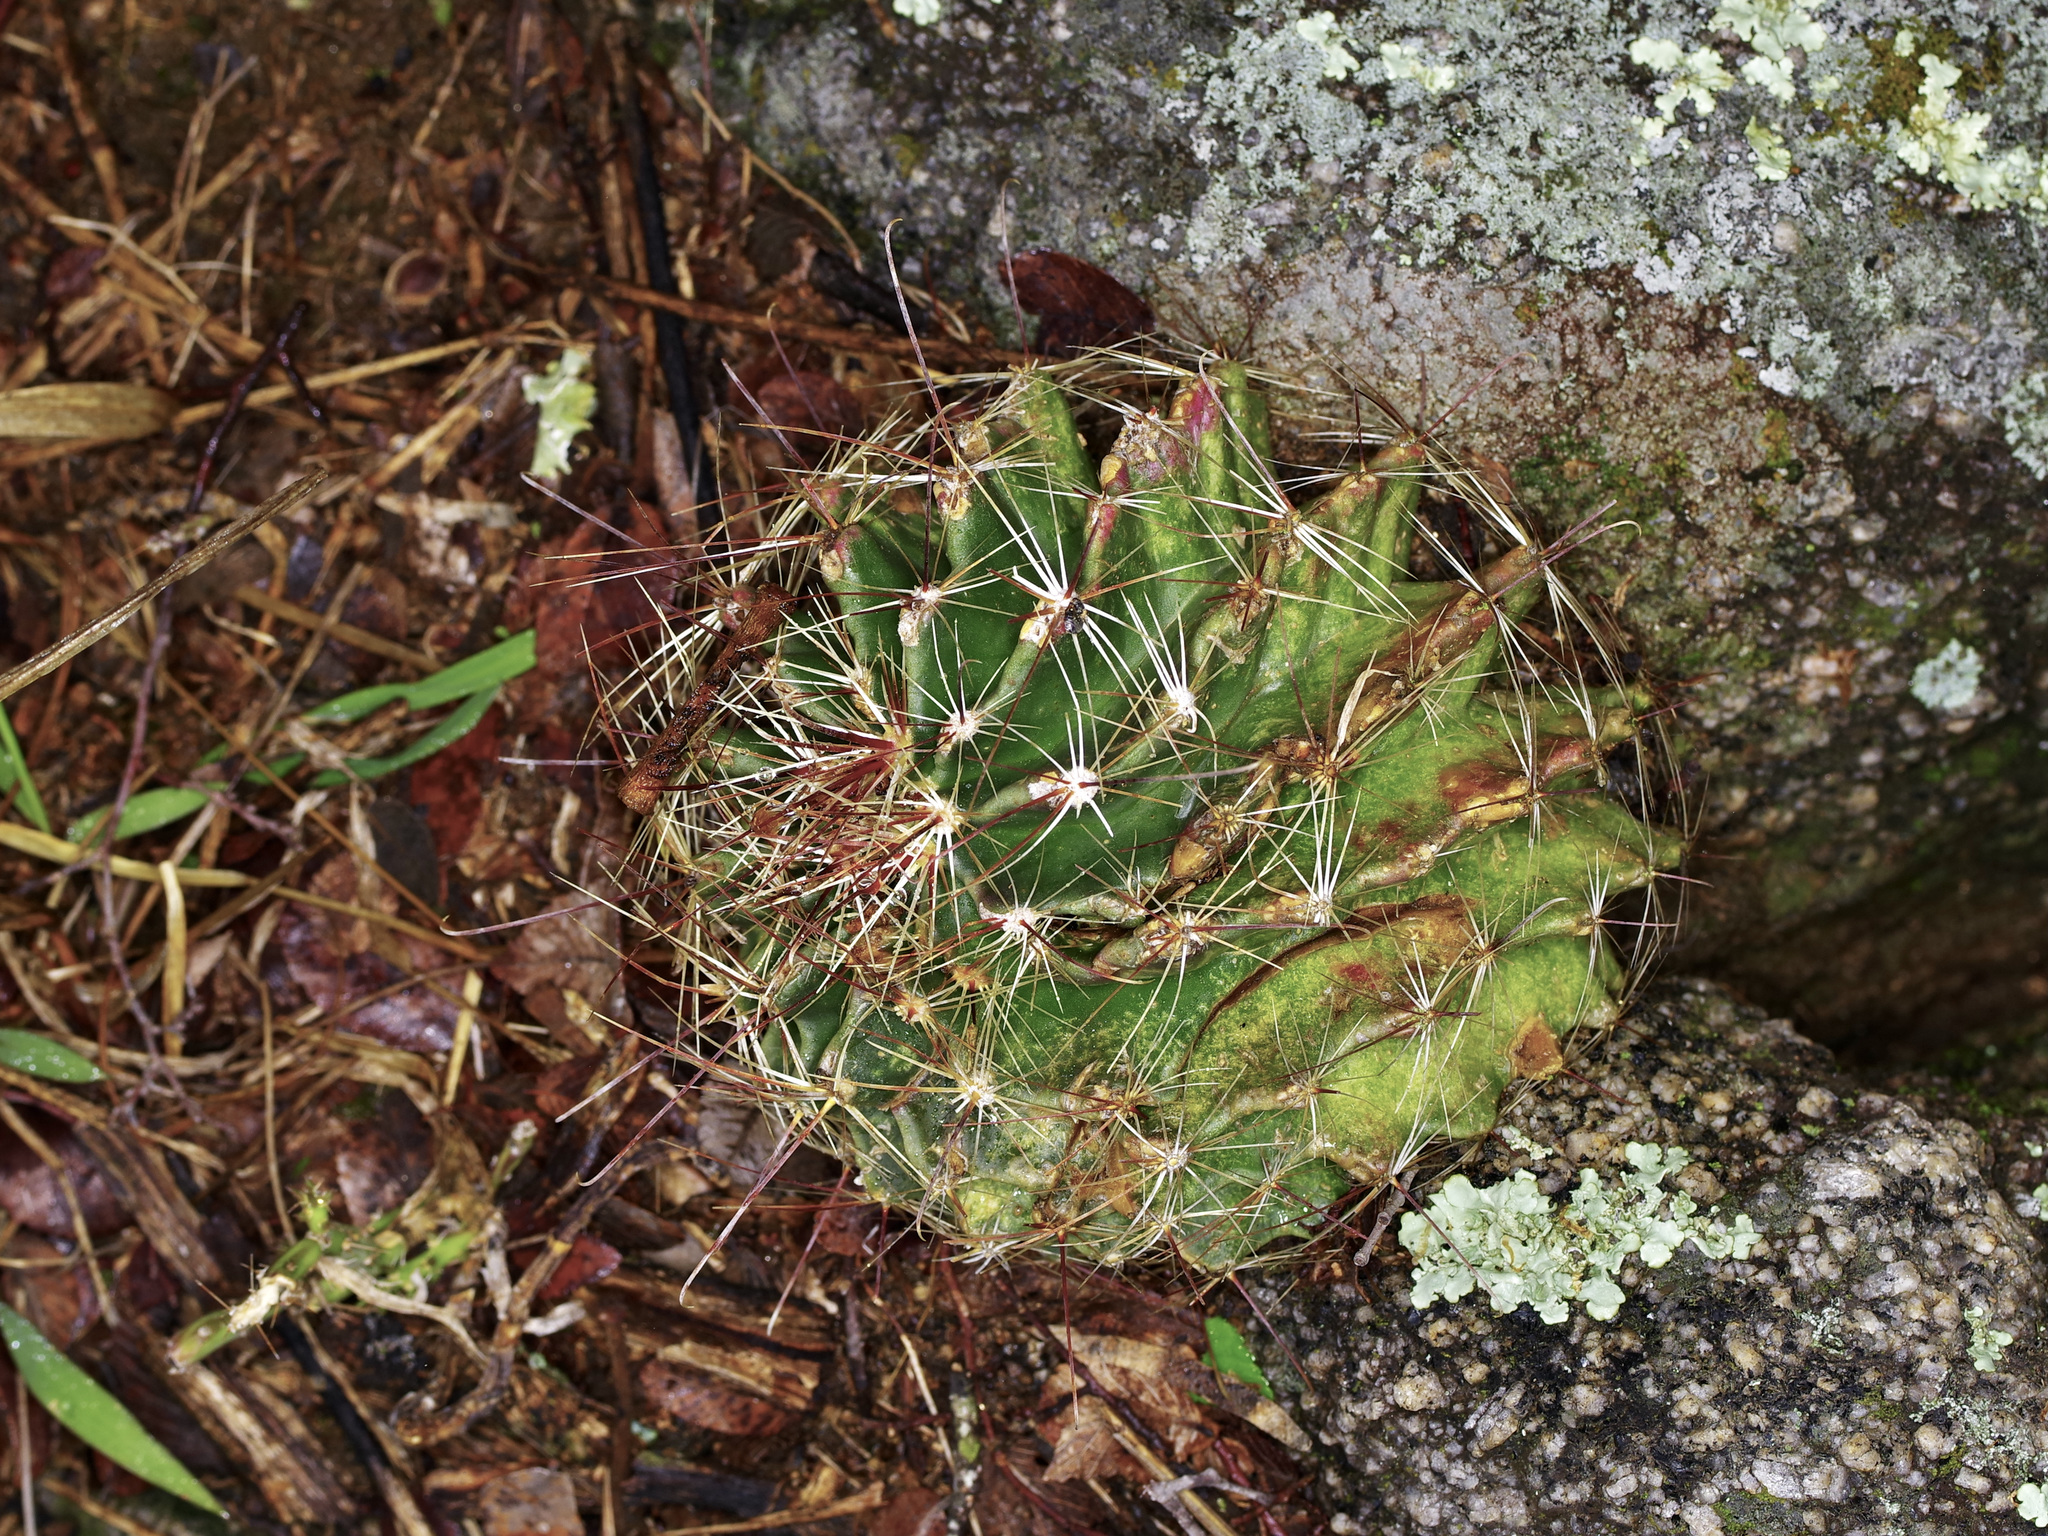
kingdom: Plantae
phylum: Tracheophyta
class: Magnoliopsida
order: Caryophyllales
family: Cactaceae
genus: Thelocactus
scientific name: Thelocactus setispinus
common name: Miniature barrel cactus
